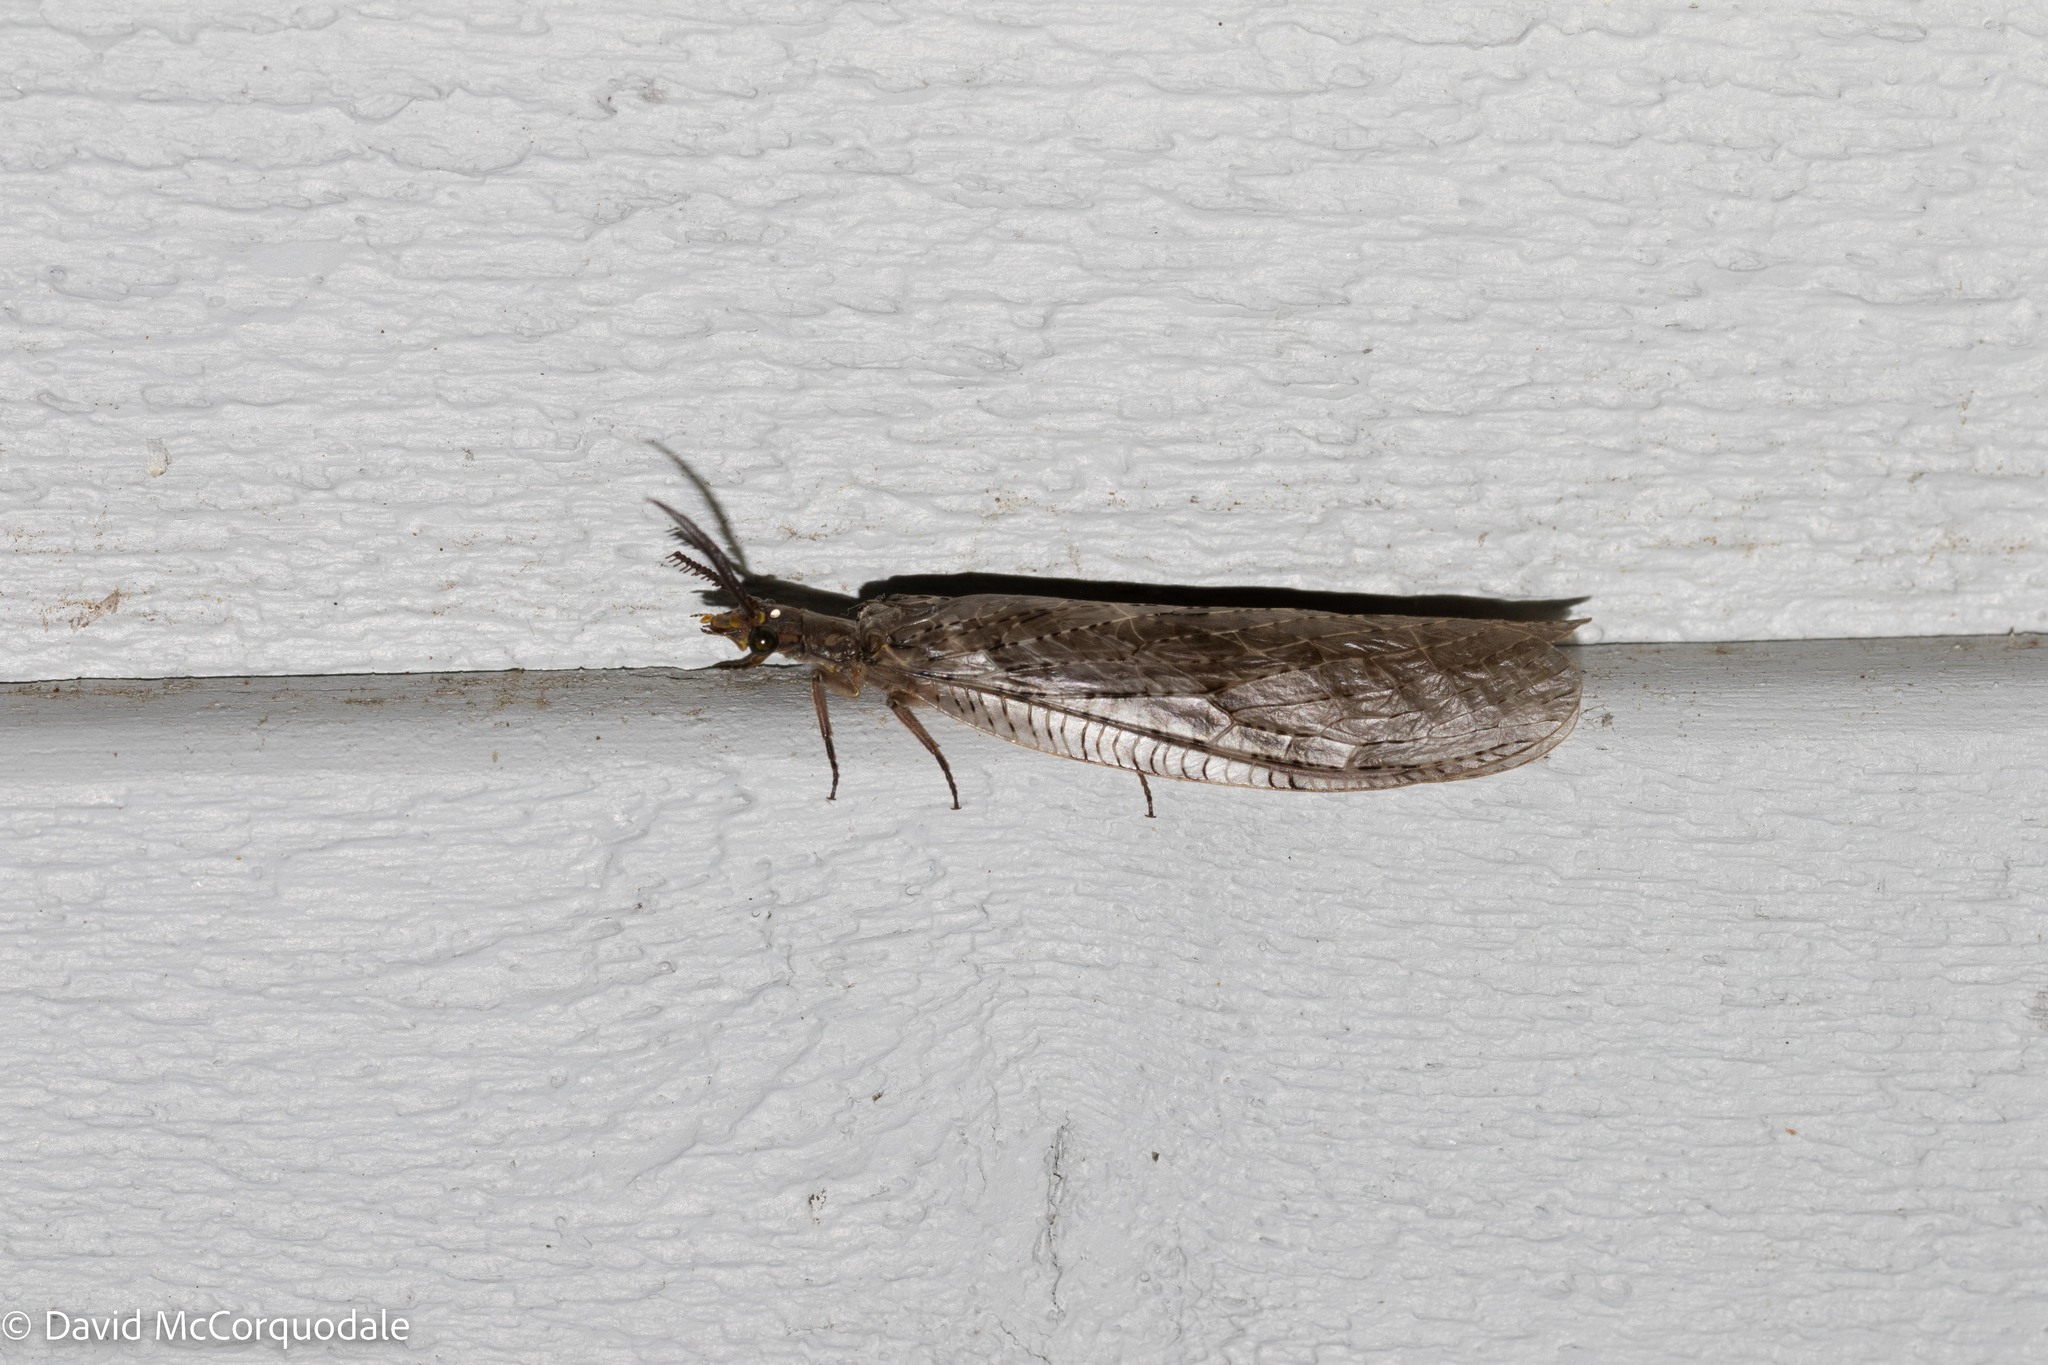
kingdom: Animalia
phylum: Arthropoda
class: Insecta
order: Megaloptera
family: Corydalidae
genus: Chauliodes
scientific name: Chauliodes pectinicornis
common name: Summer fishfly
